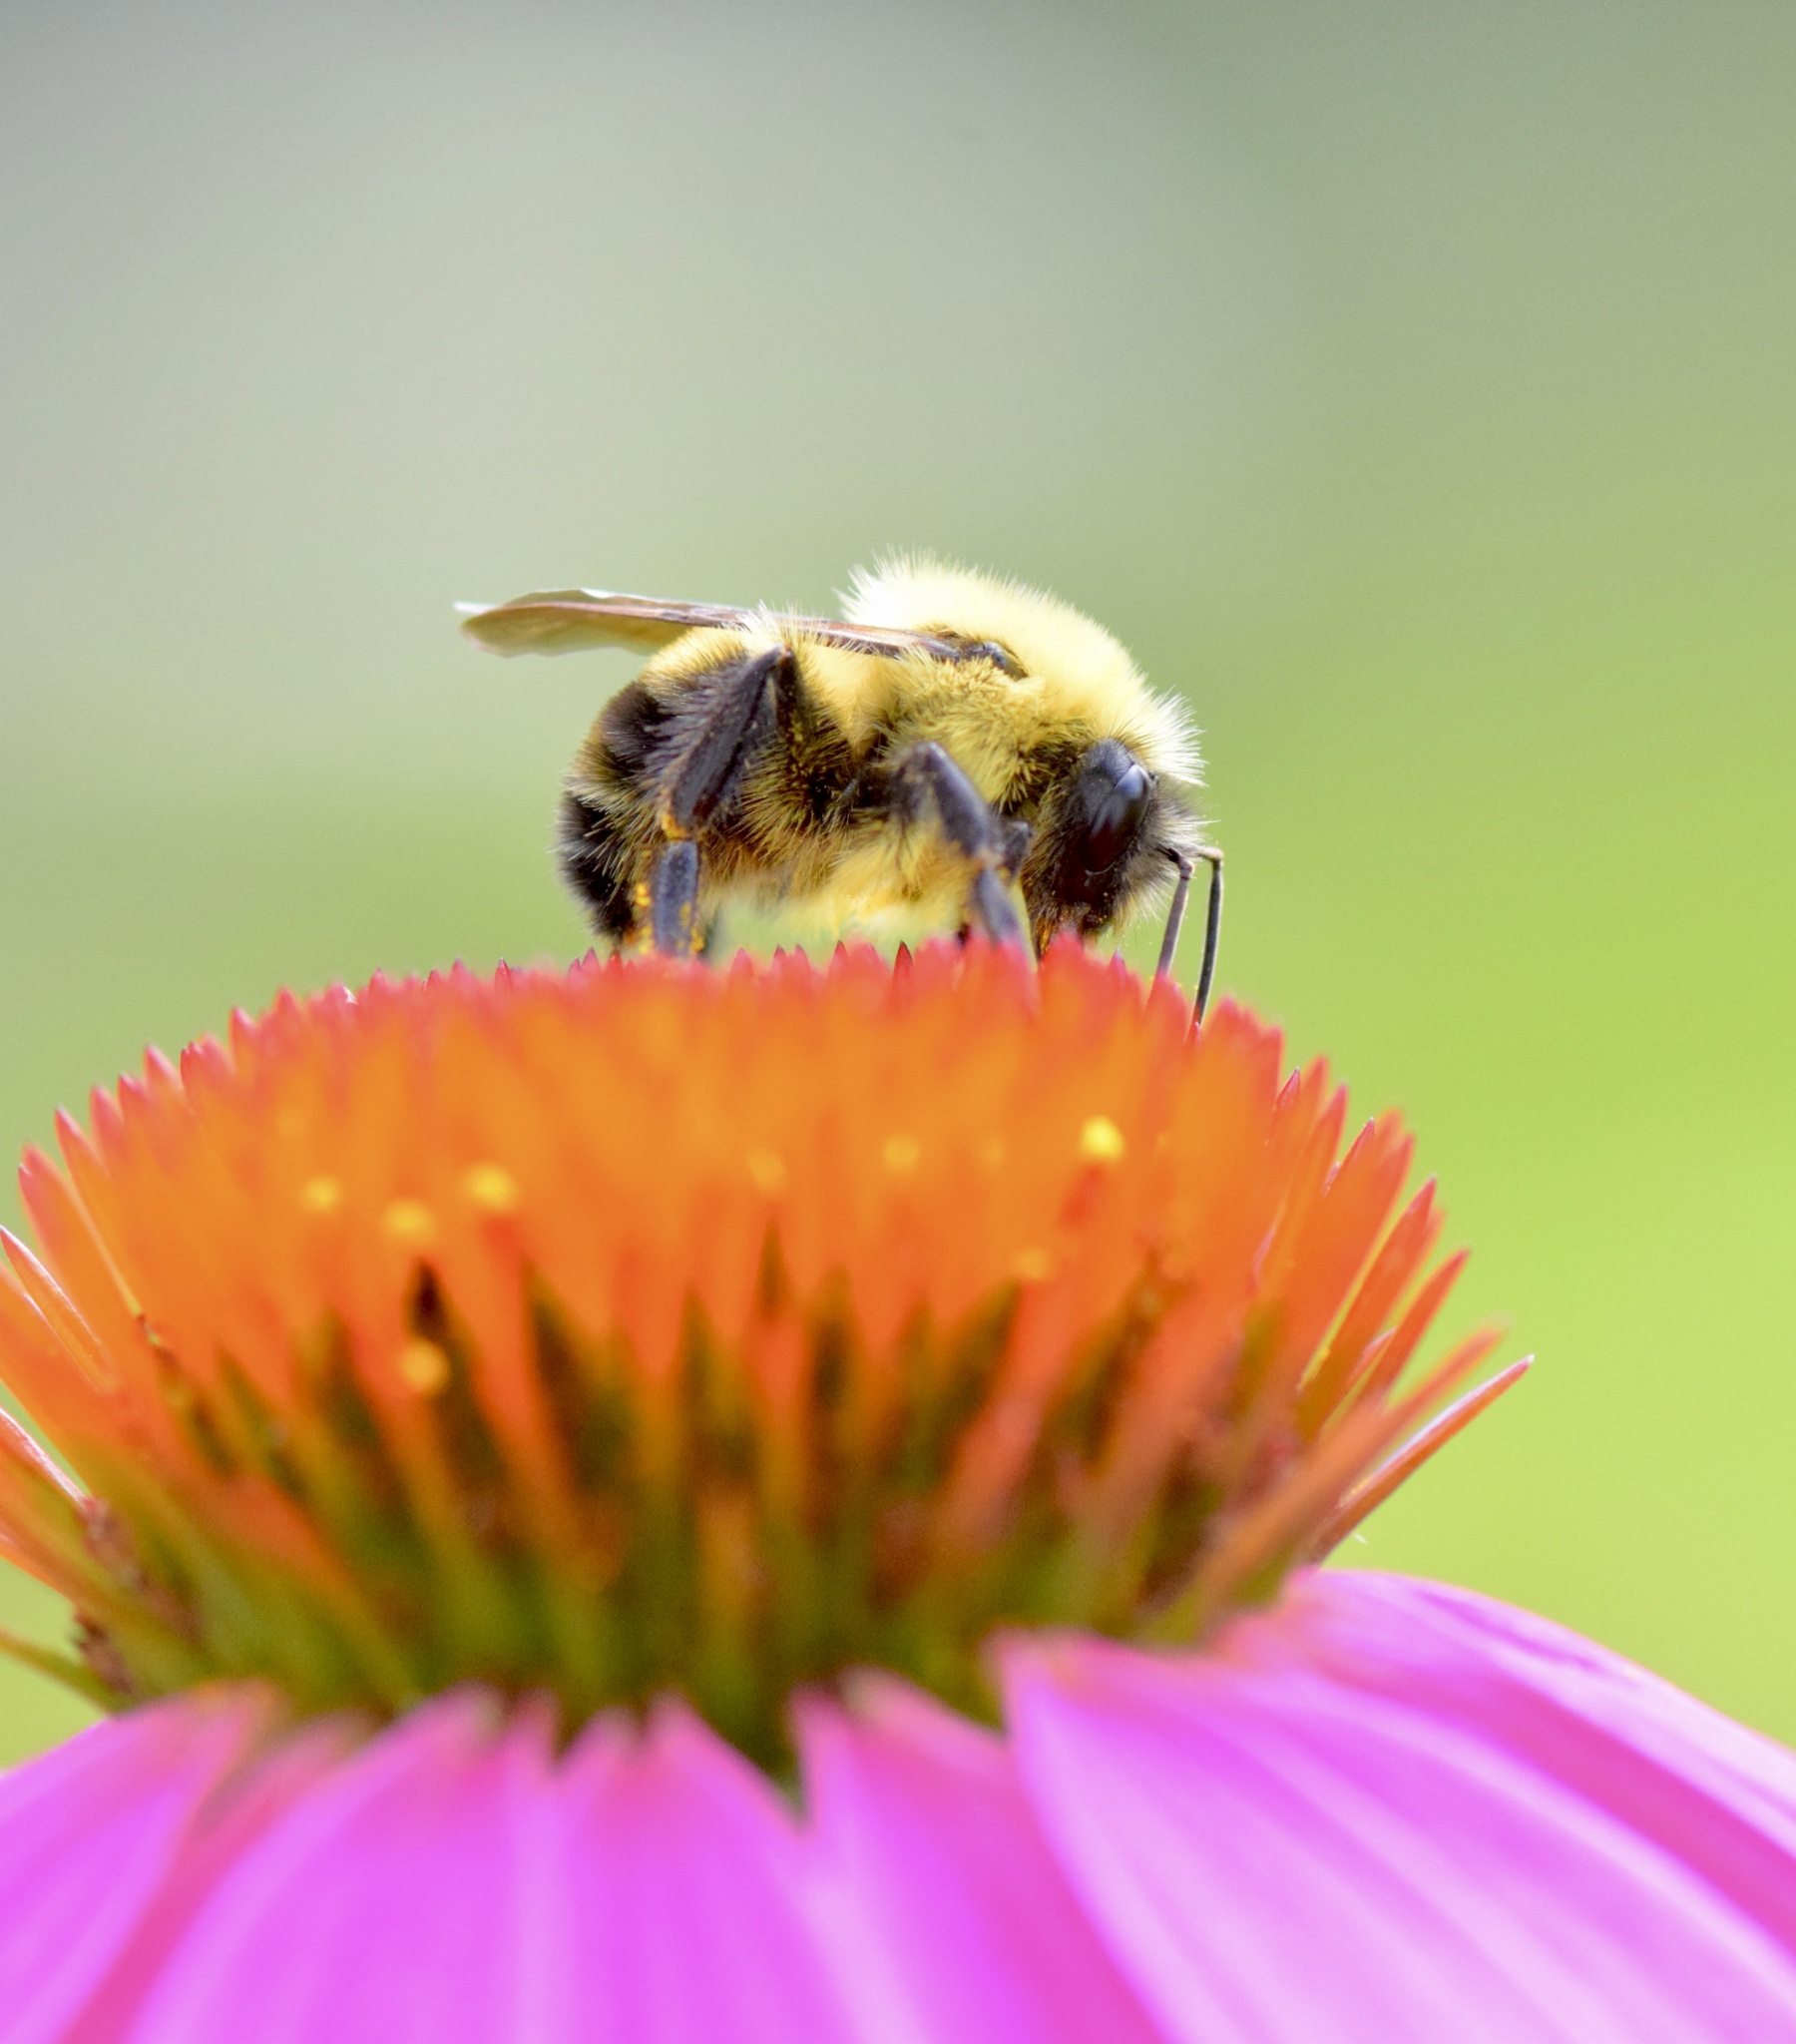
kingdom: Animalia
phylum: Arthropoda
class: Insecta
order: Hymenoptera
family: Apidae
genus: Bombus
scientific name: Bombus bimaculatus
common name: Two-spotted bumble bee
